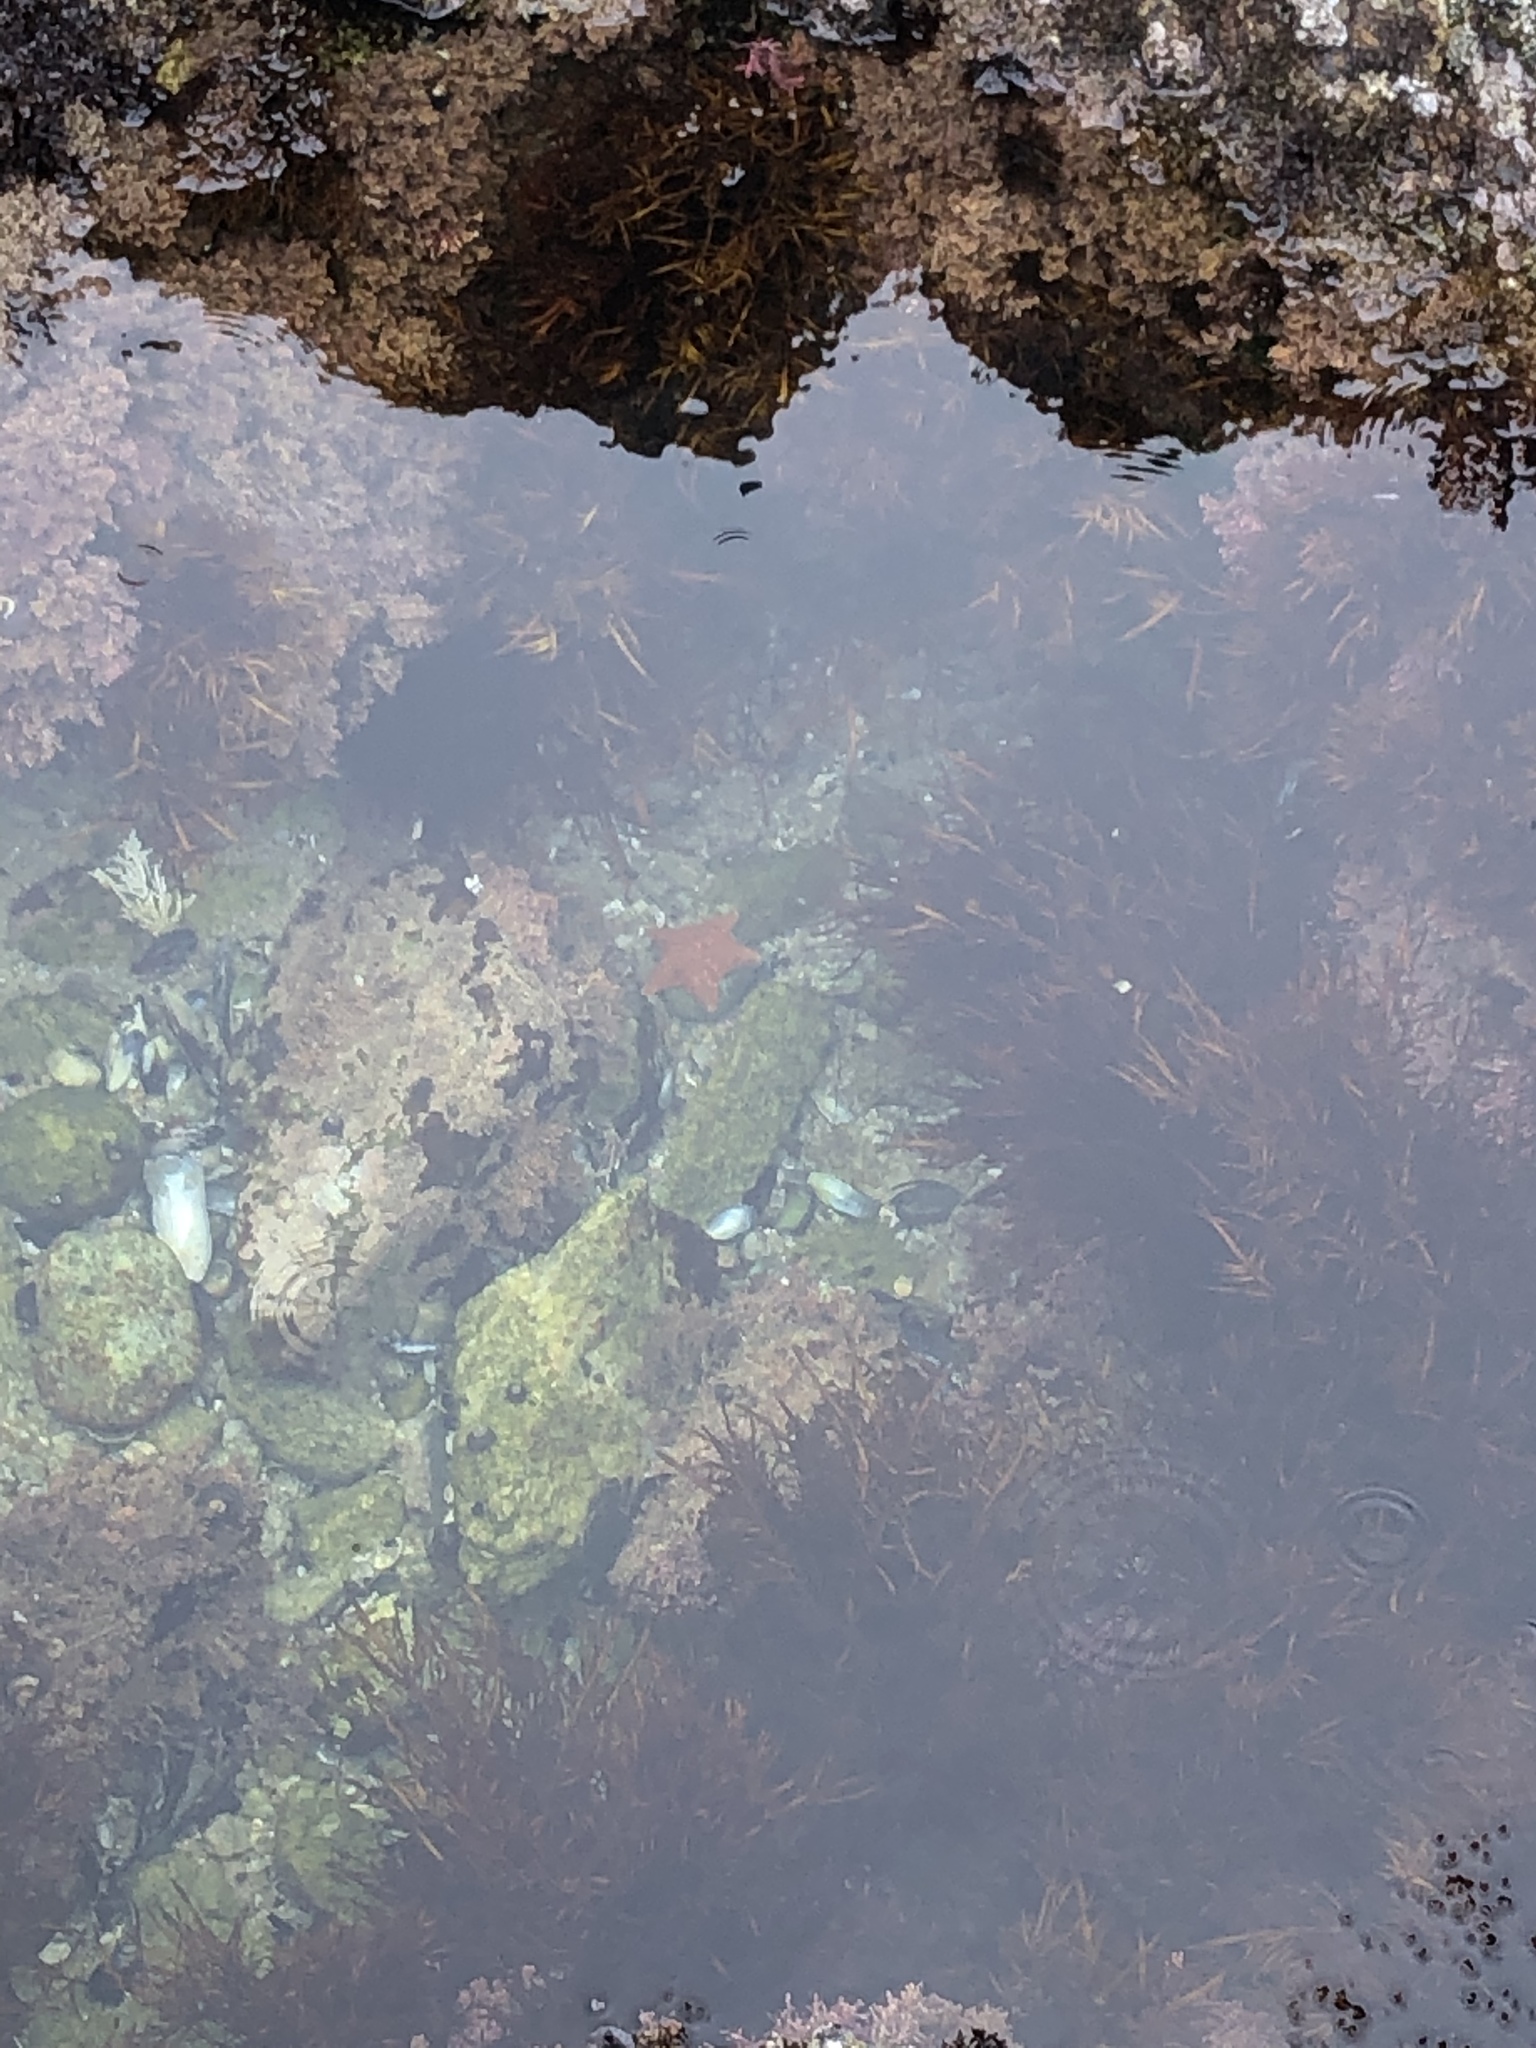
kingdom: Animalia
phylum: Echinodermata
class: Asteroidea
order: Valvatida
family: Asterinidae
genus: Patiria
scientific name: Patiria miniata
